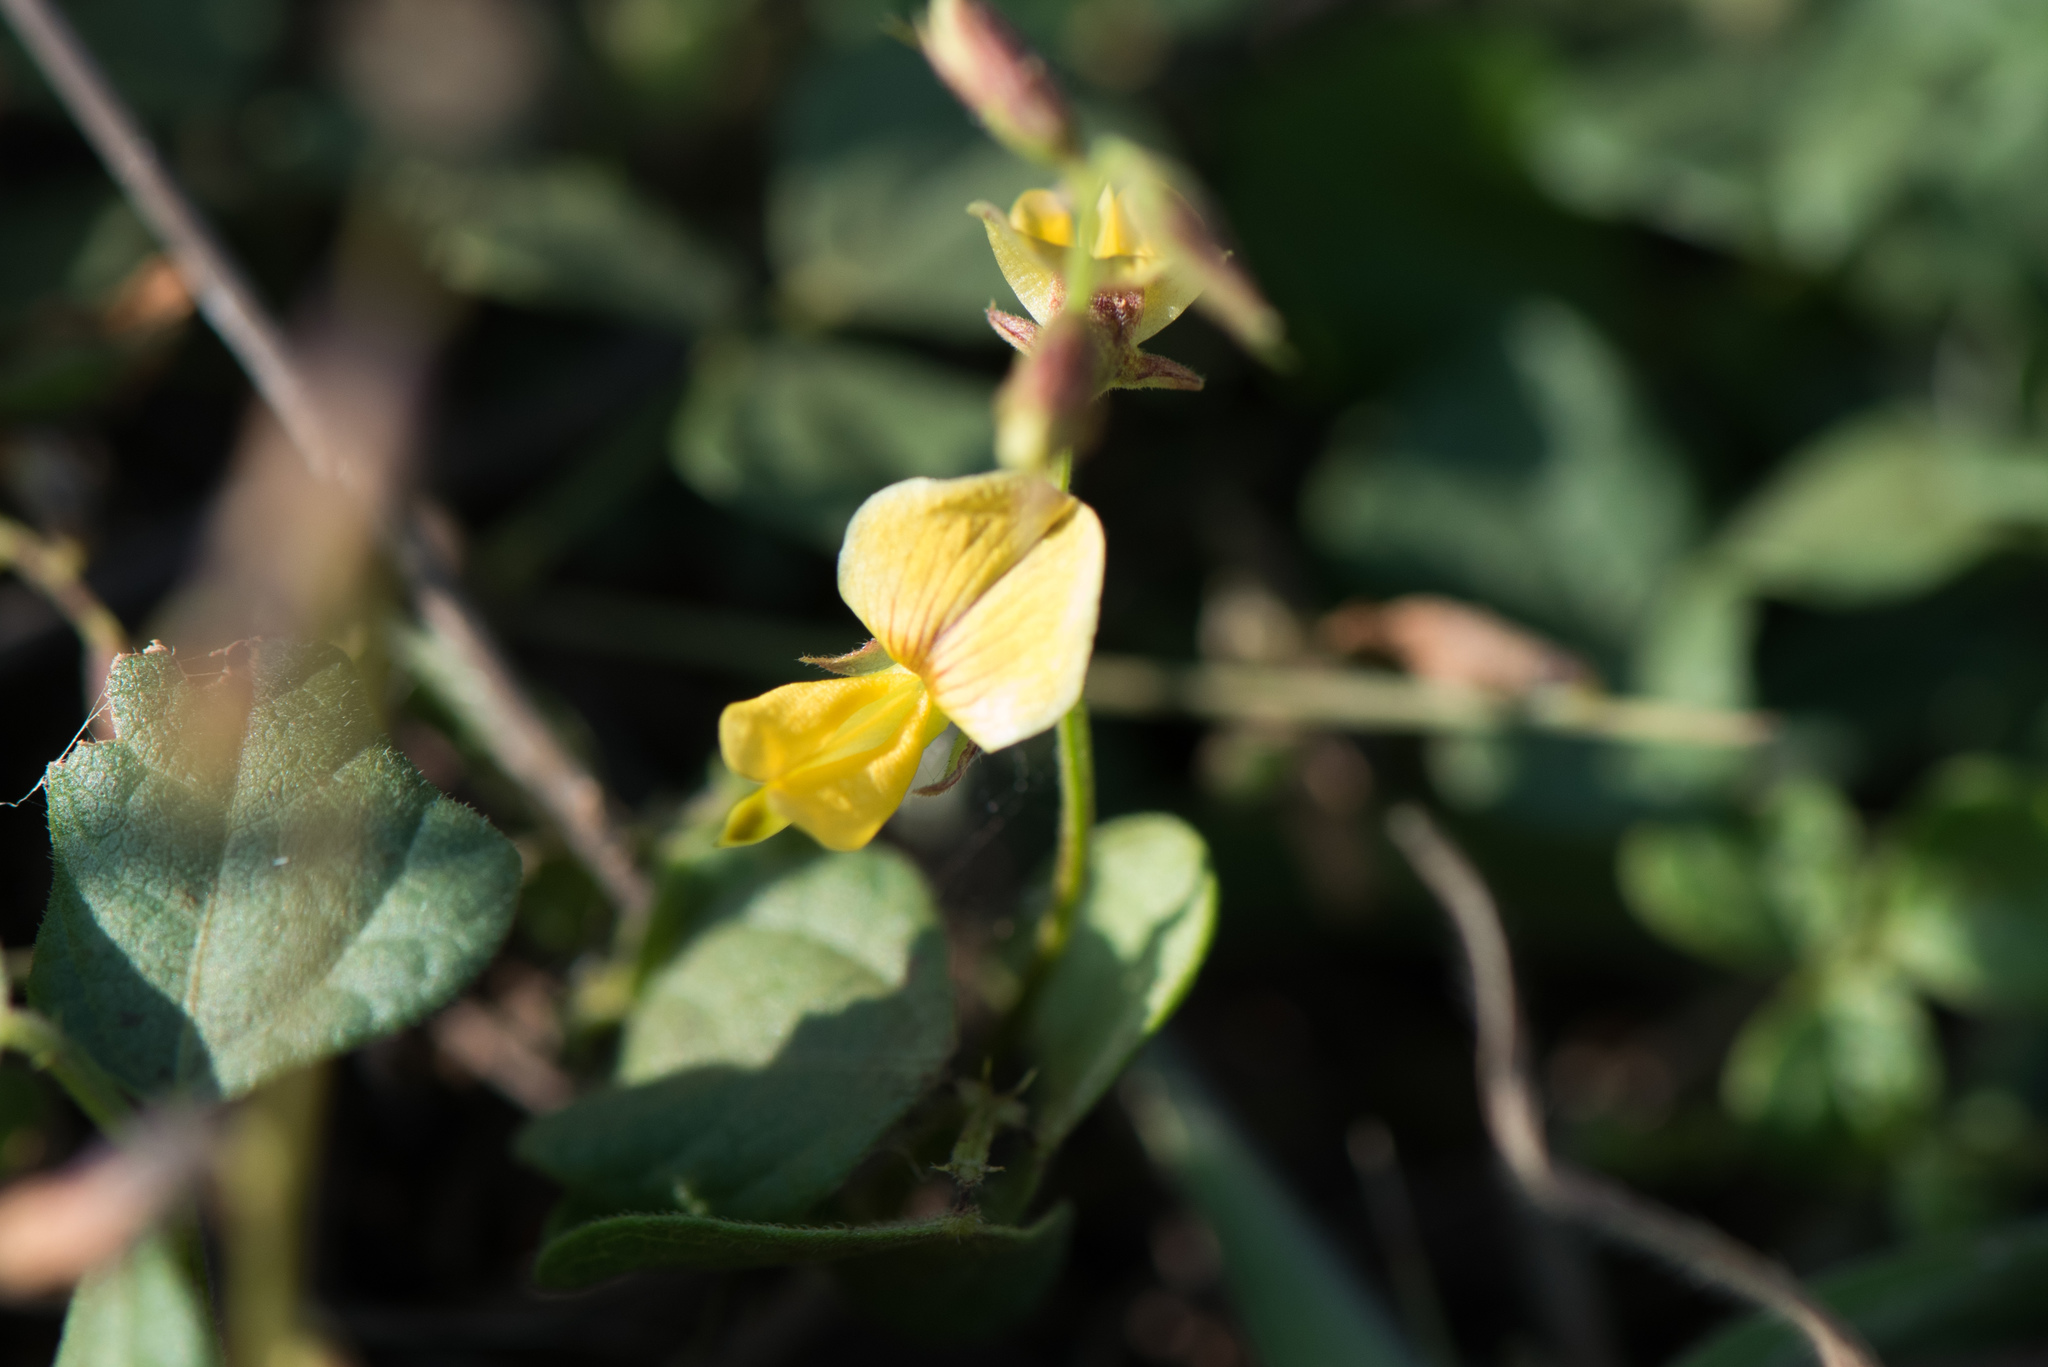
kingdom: Plantae
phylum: Tracheophyta
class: Magnoliopsida
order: Fabales
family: Fabaceae
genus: Rhynchosia
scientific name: Rhynchosia minima
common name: Least snoutbean
